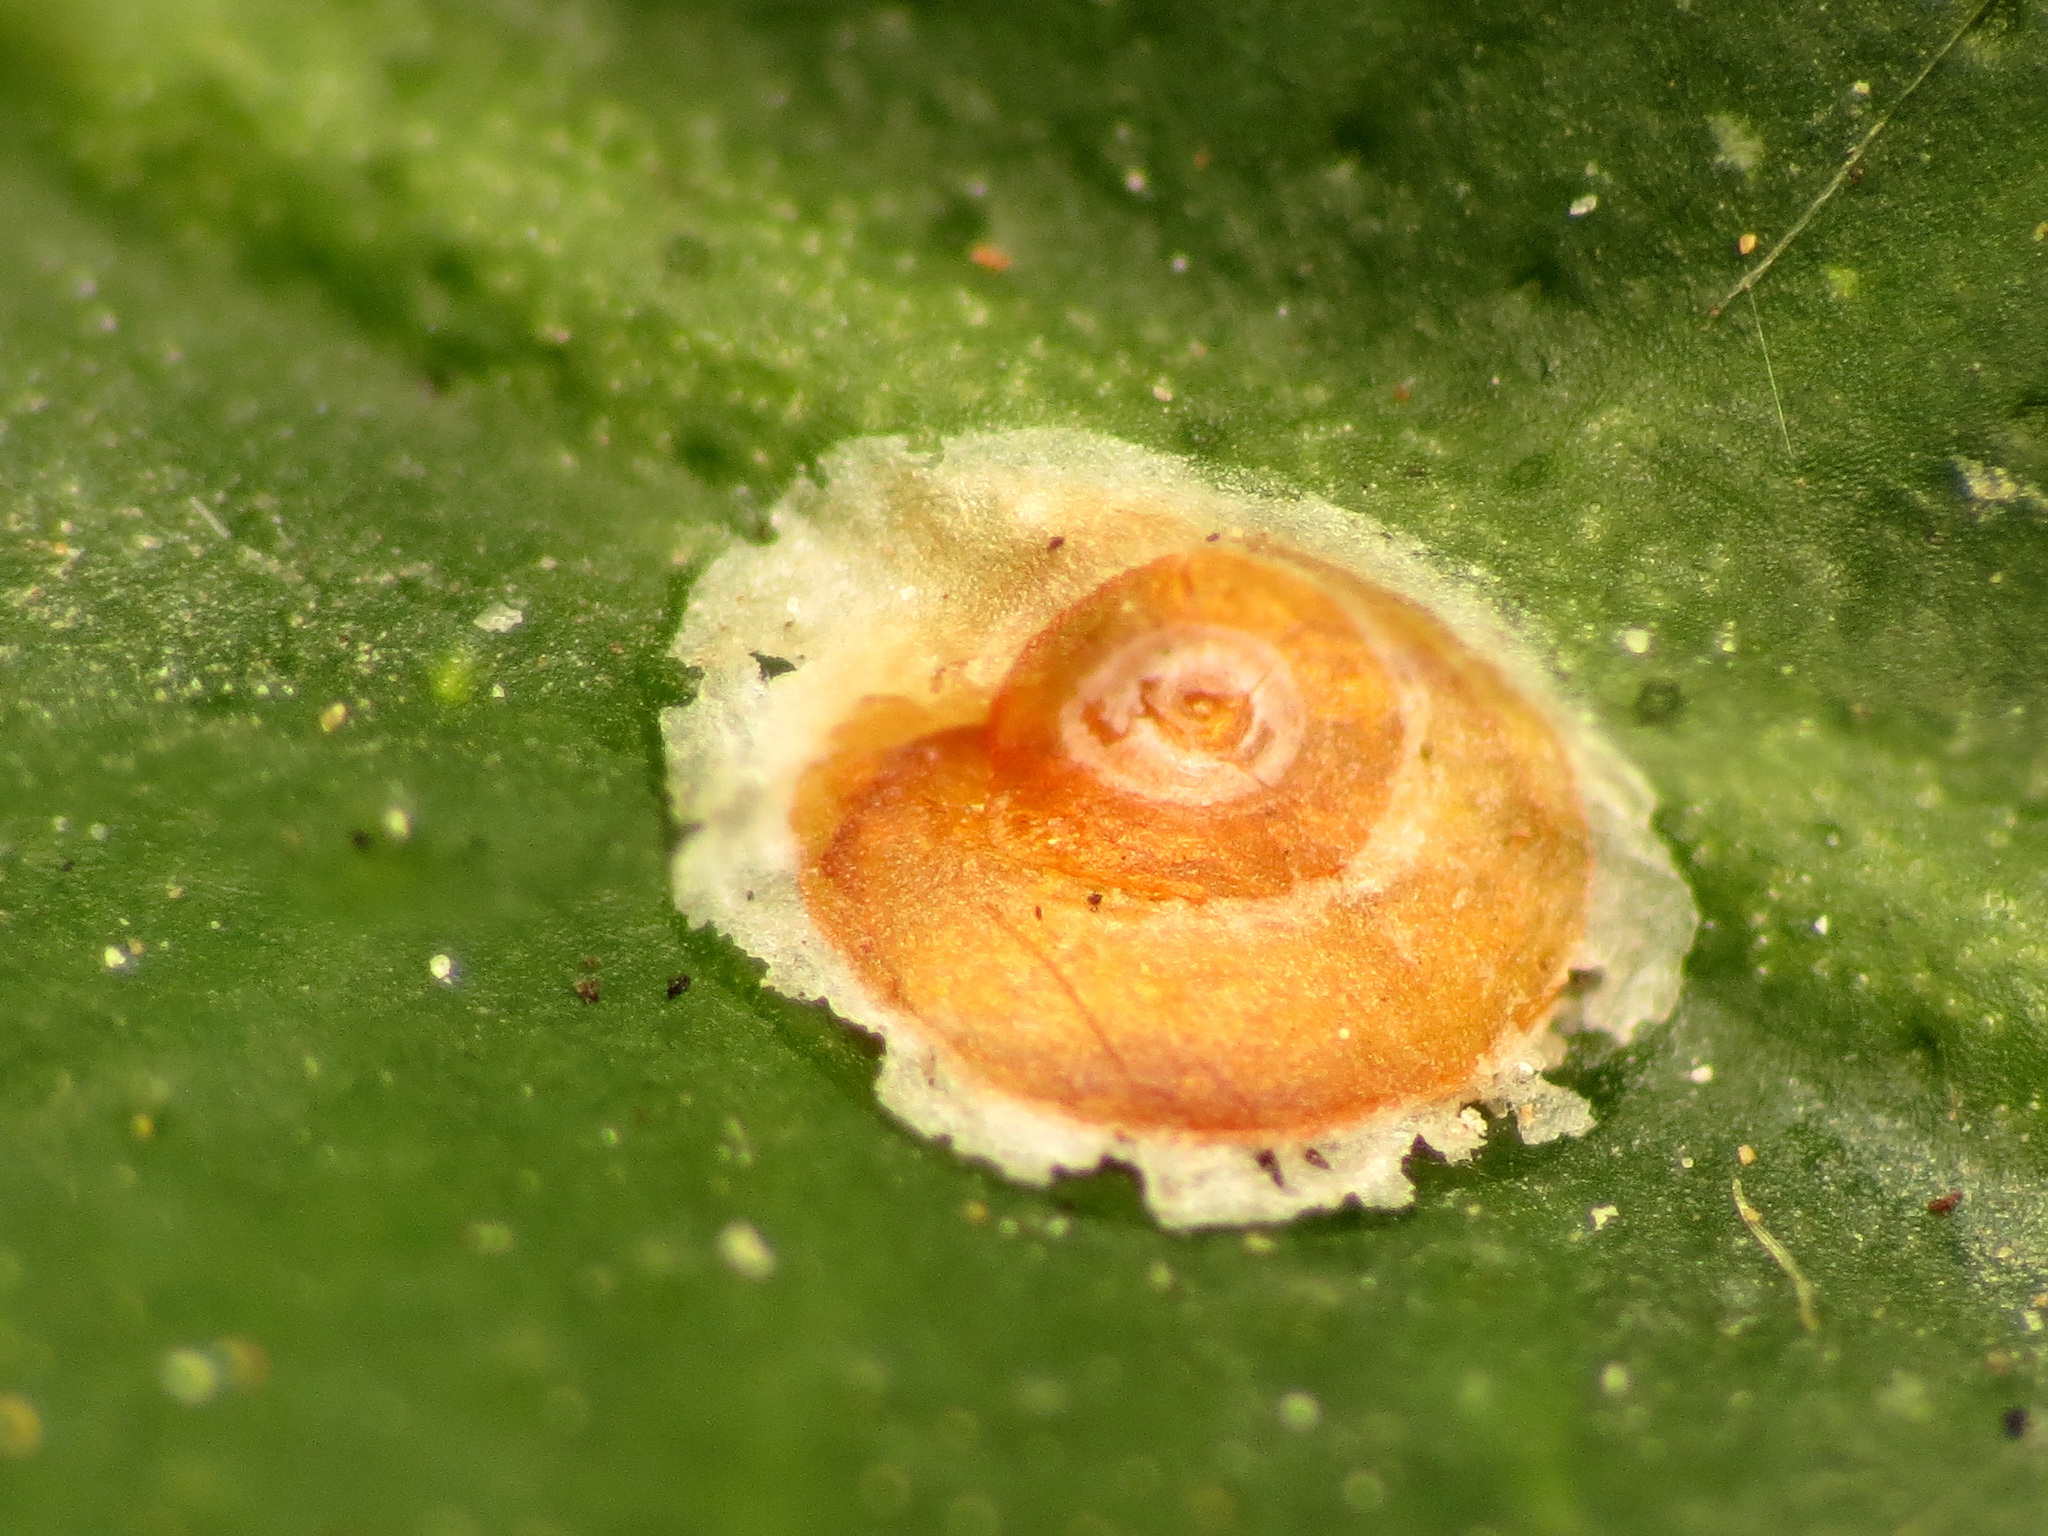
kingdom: Animalia
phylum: Arthropoda
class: Insecta
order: Hemiptera
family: Diaspididae
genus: Aonidiella
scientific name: Aonidiella aurantii
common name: California red scale
